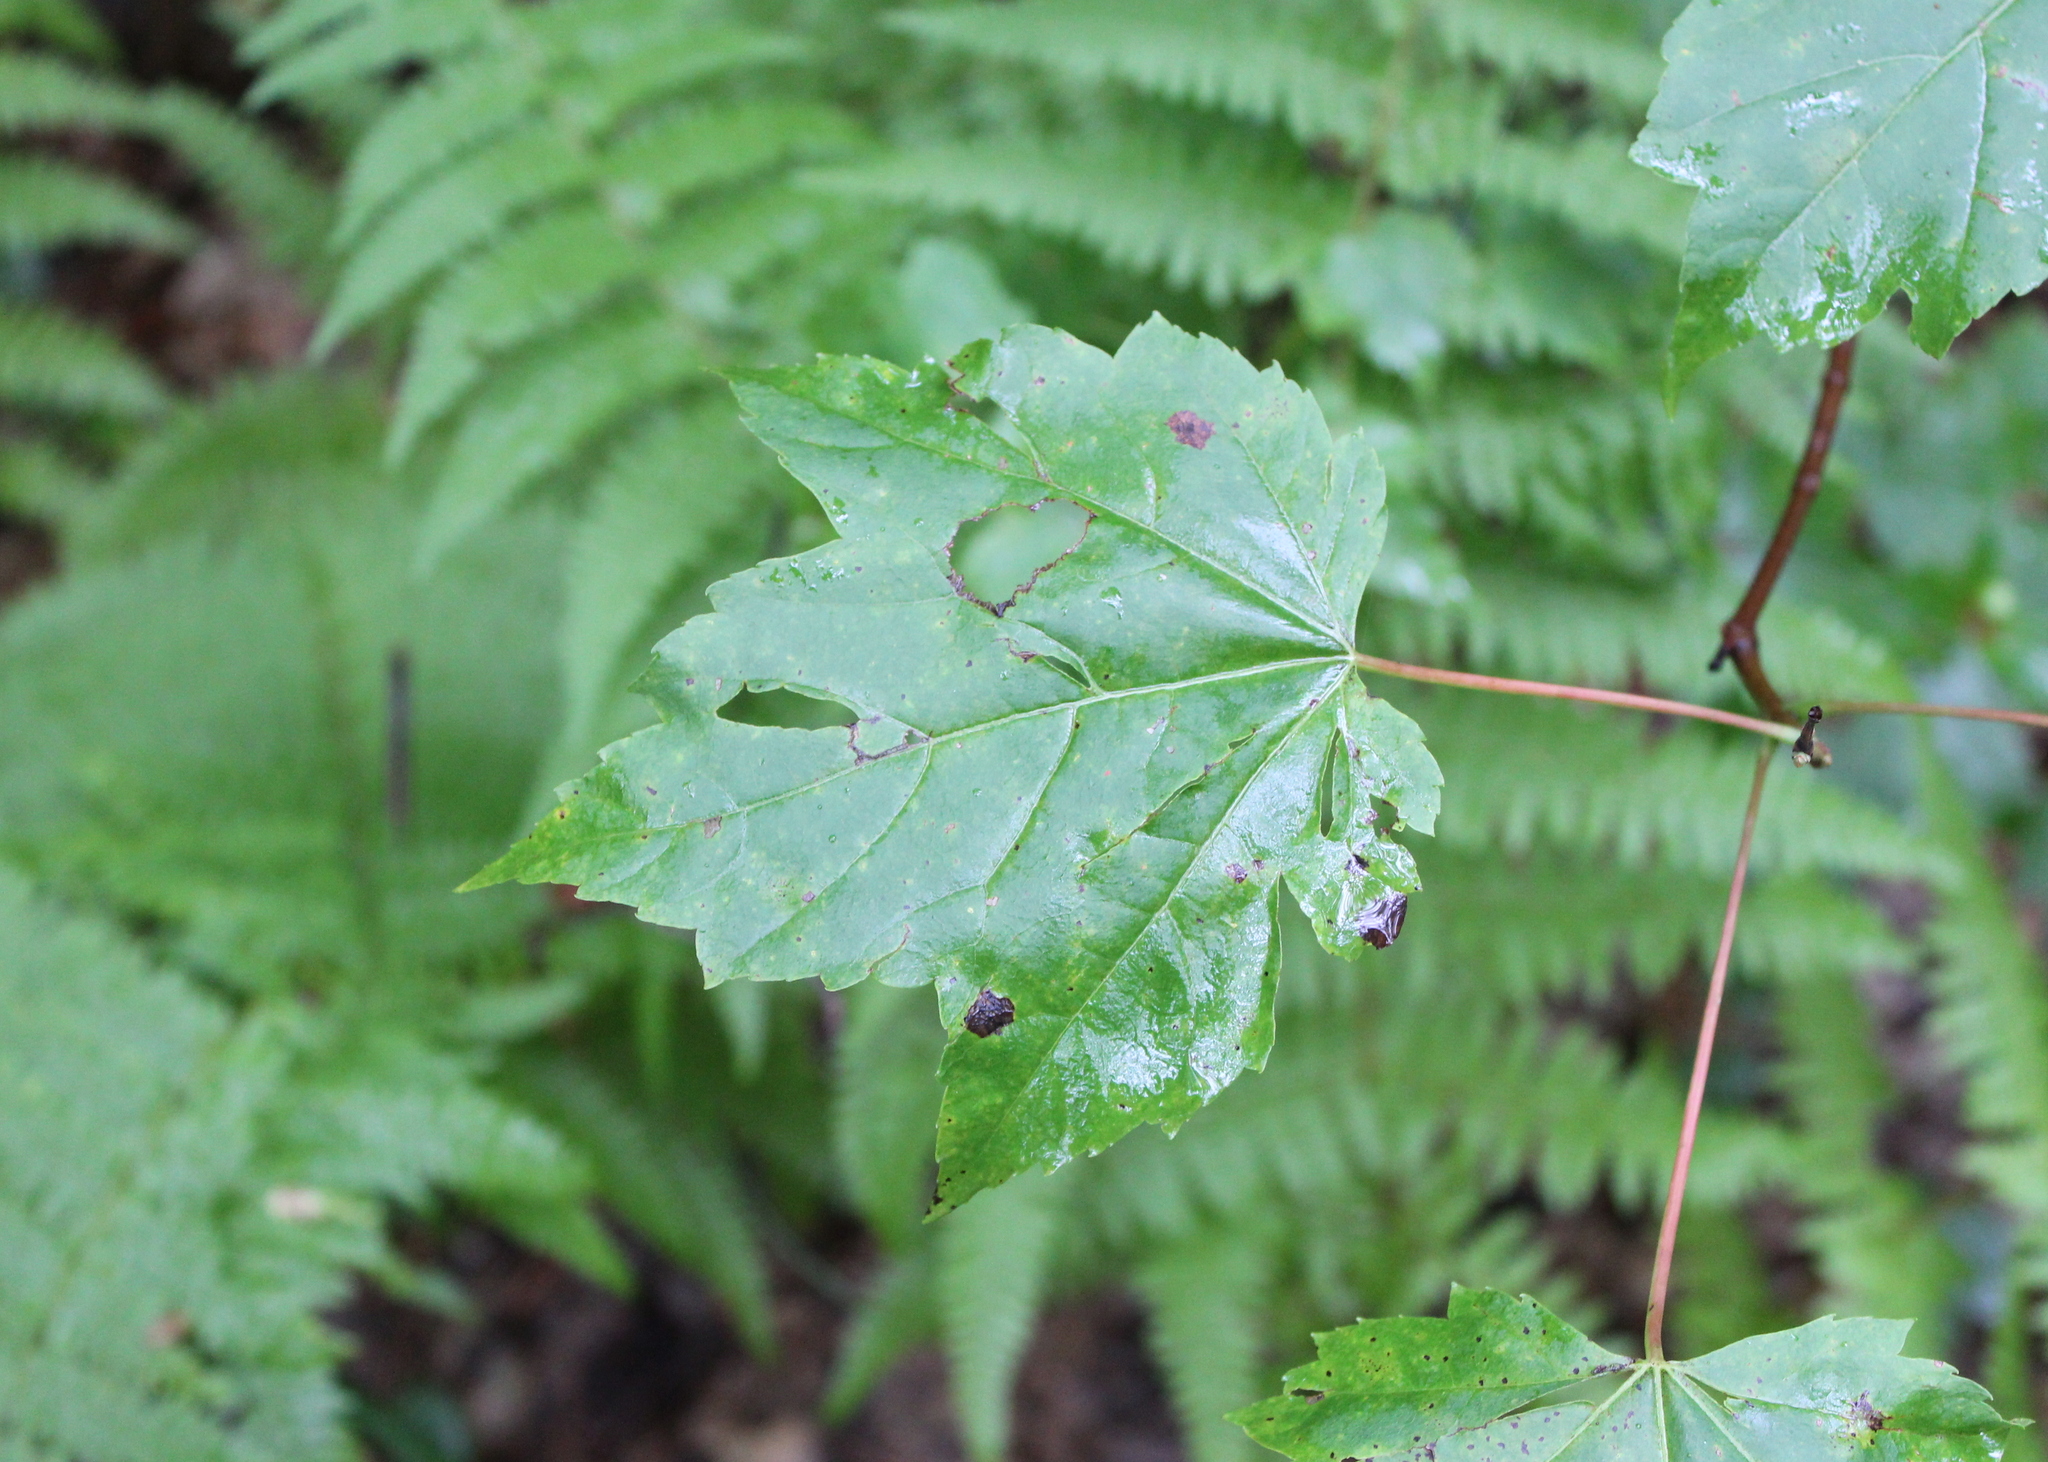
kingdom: Plantae
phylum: Tracheophyta
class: Magnoliopsida
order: Sapindales
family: Sapindaceae
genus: Acer
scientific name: Acer rubrum
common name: Red maple
